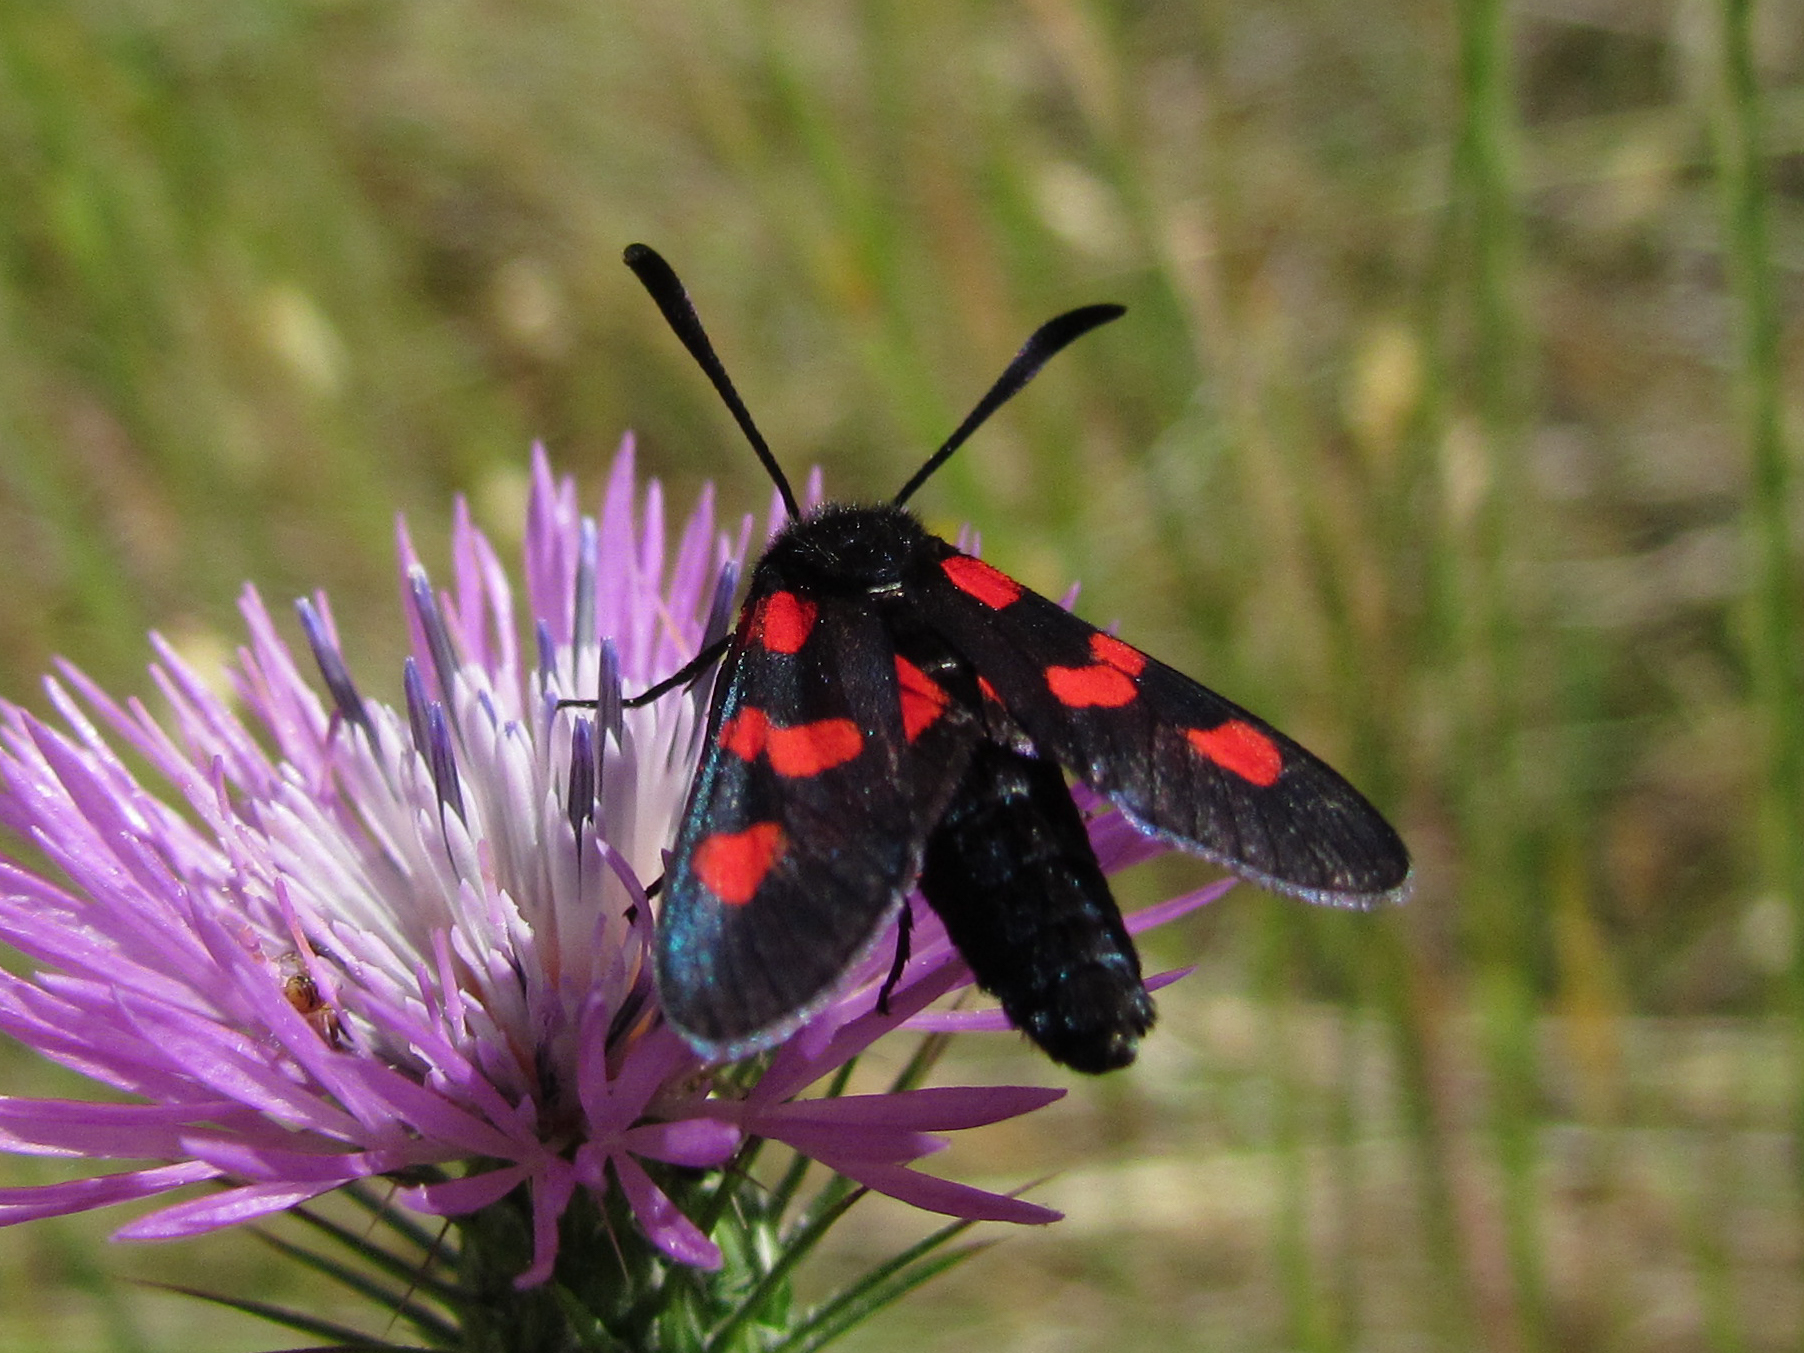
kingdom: Animalia
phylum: Arthropoda
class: Insecta
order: Lepidoptera
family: Zygaenidae
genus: Zygaena
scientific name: Zygaena trifolii
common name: Five-spot burnet
